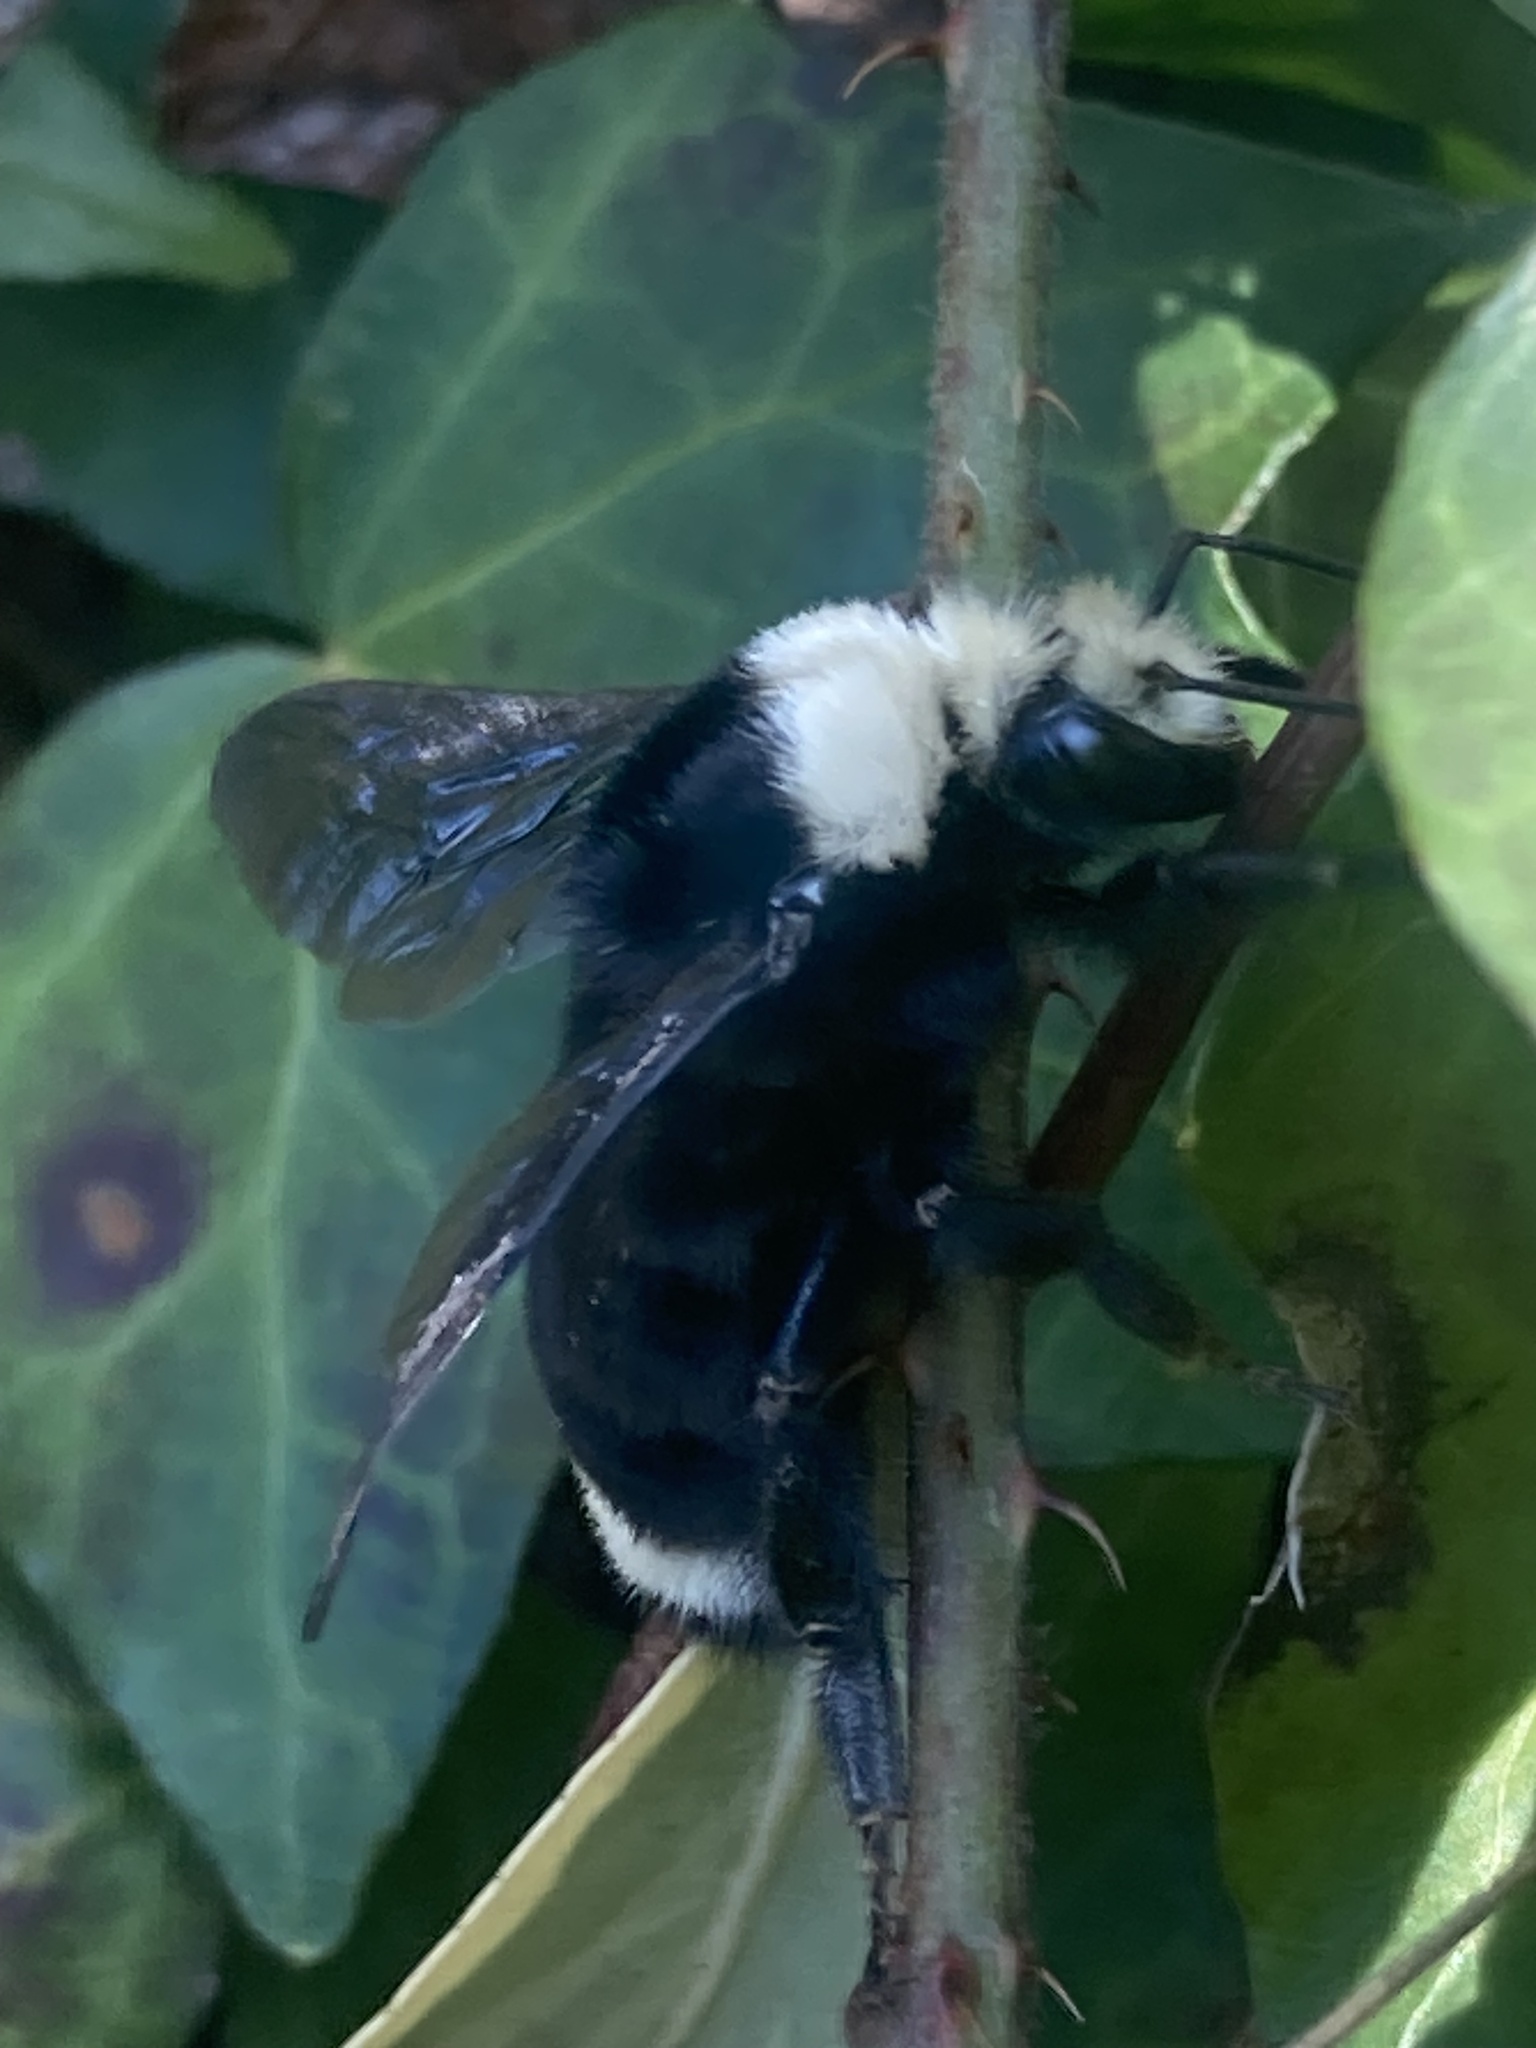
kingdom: Animalia
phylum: Arthropoda
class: Insecta
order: Hymenoptera
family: Apidae
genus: Bombus
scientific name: Bombus vosnesenskii
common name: Vosnesensky bumble bee
